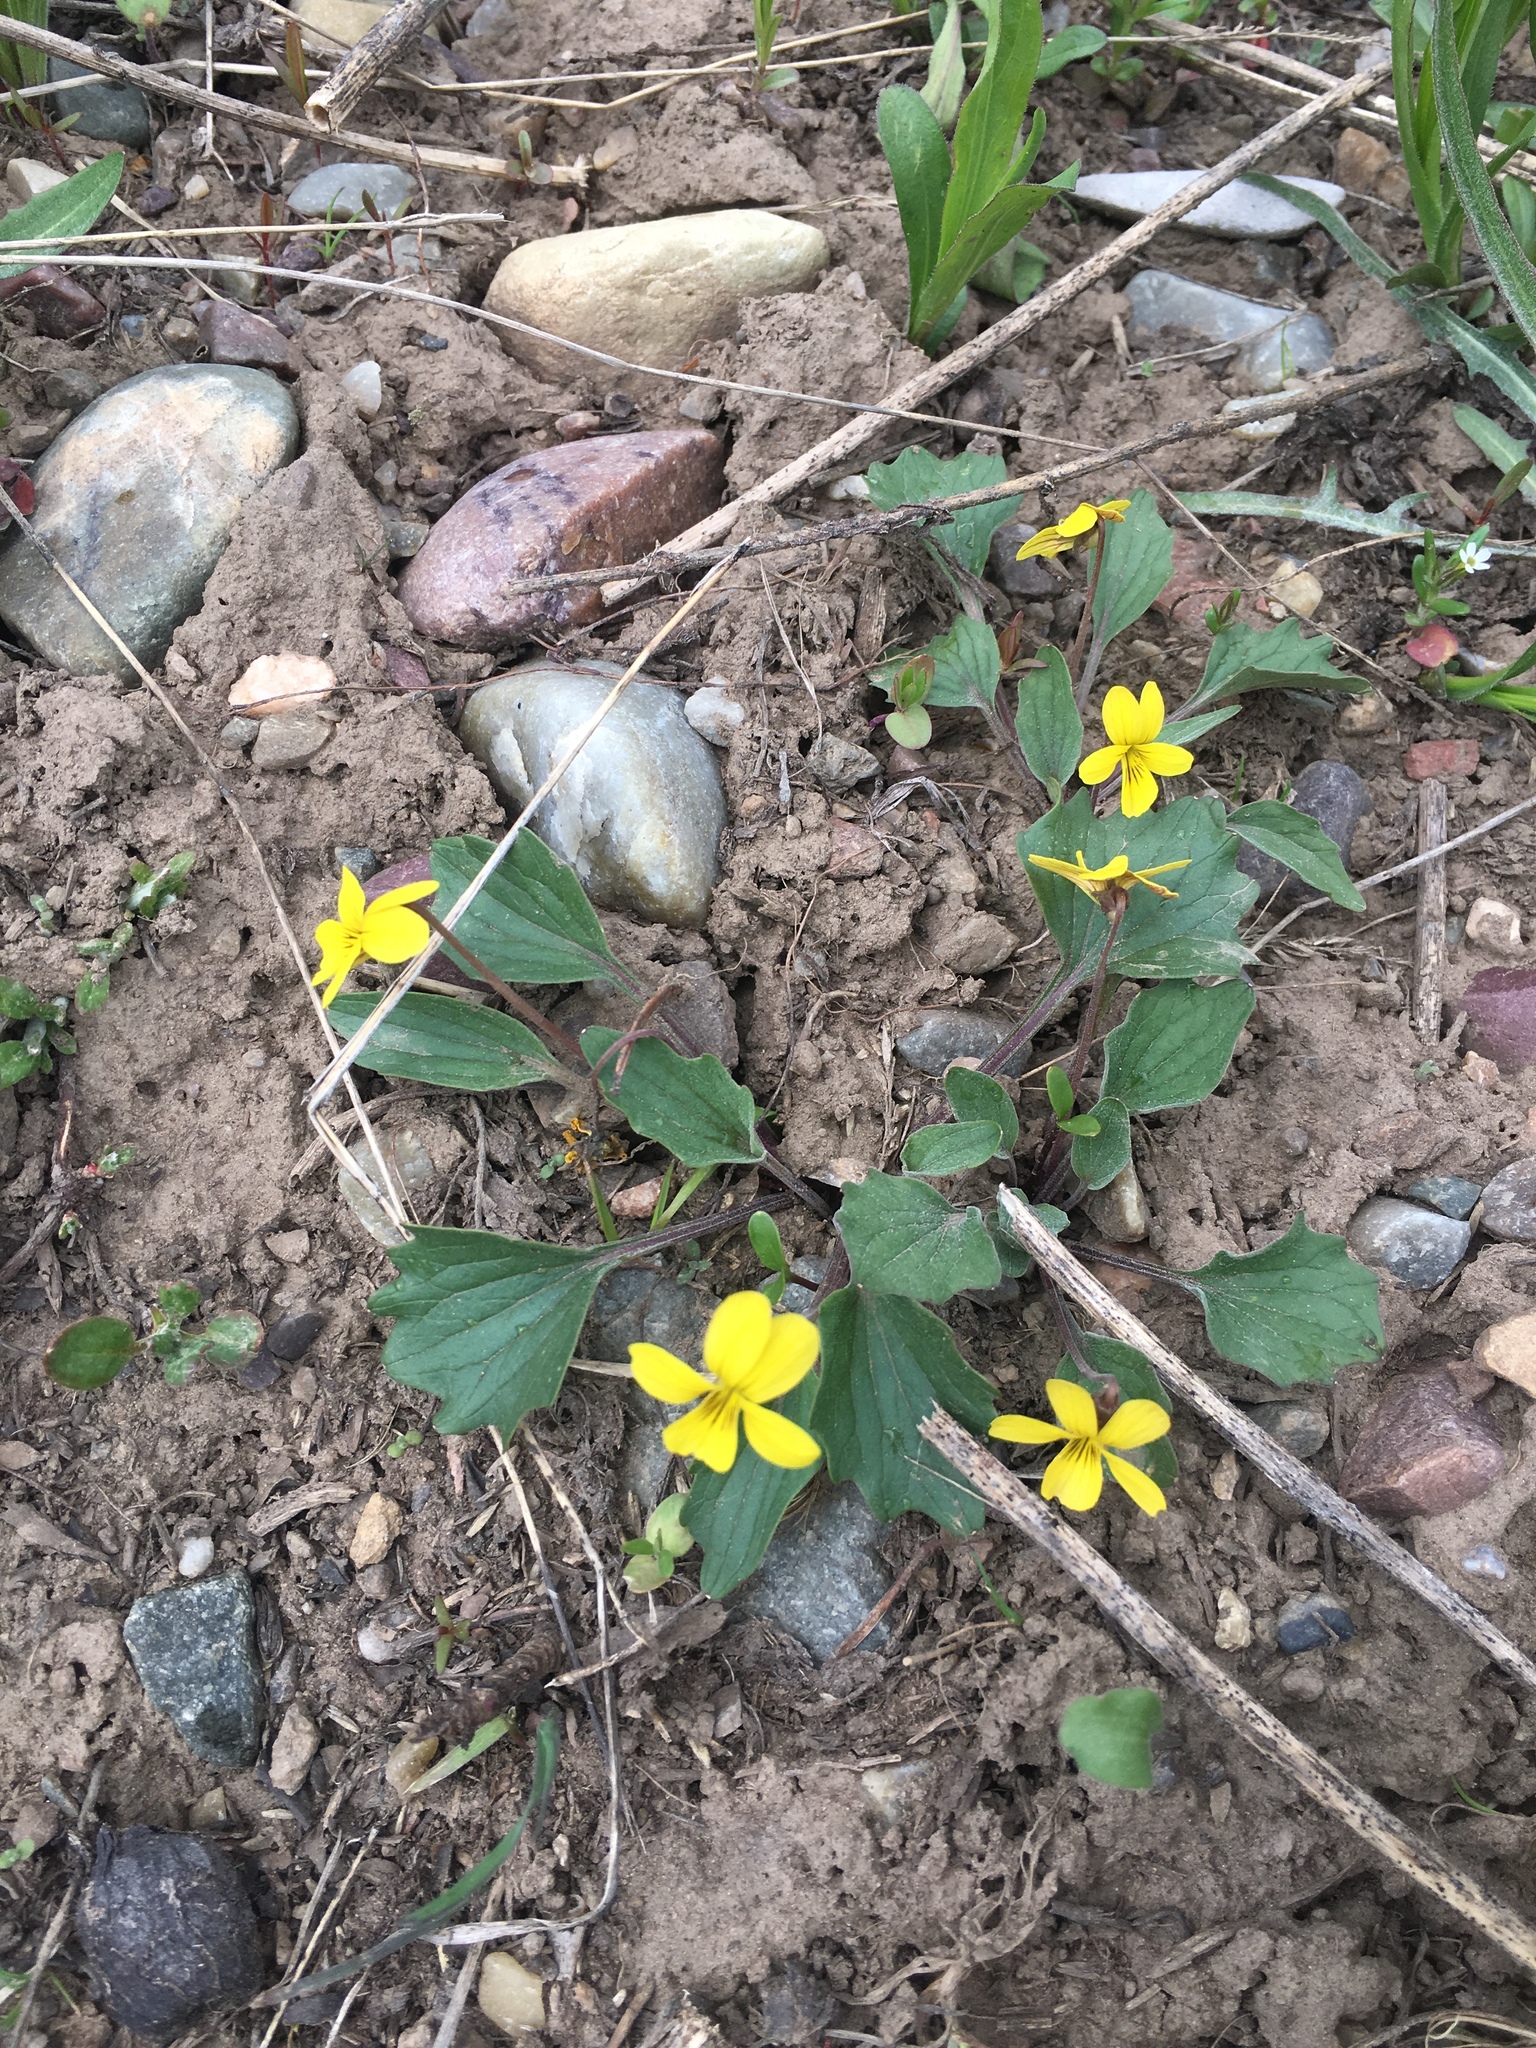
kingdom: Plantae
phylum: Tracheophyta
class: Magnoliopsida
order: Malpighiales
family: Violaceae
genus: Viola
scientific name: Viola purpurea
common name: Pine violet
